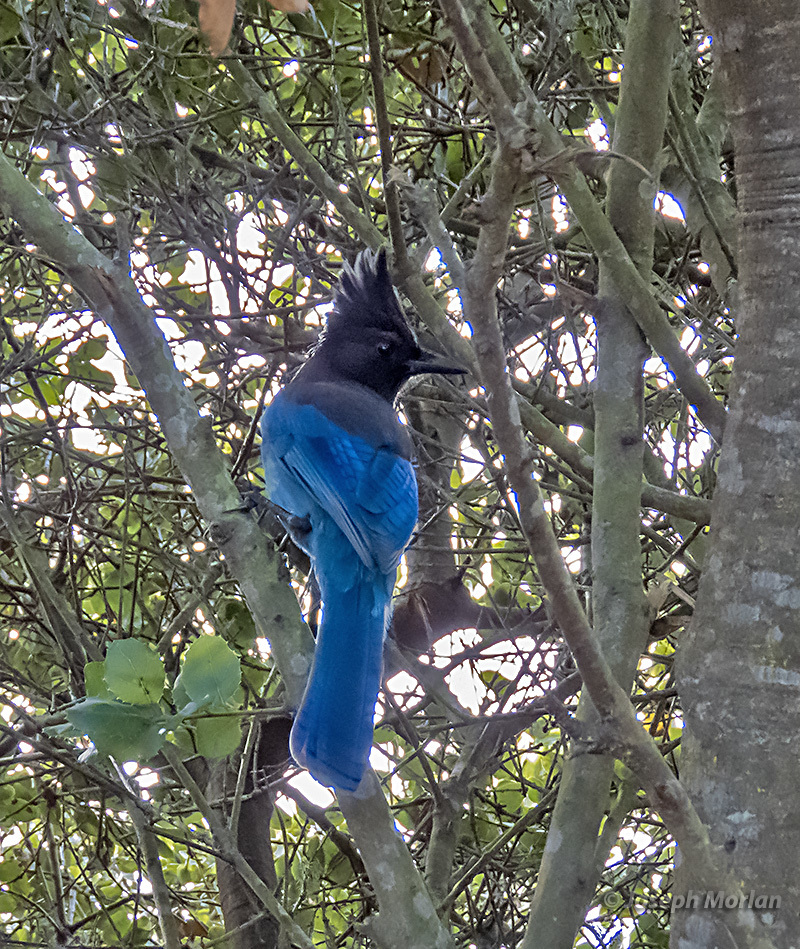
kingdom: Animalia
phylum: Chordata
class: Aves
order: Passeriformes
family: Corvidae
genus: Cyanocitta
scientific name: Cyanocitta stelleri
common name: Steller's jay
